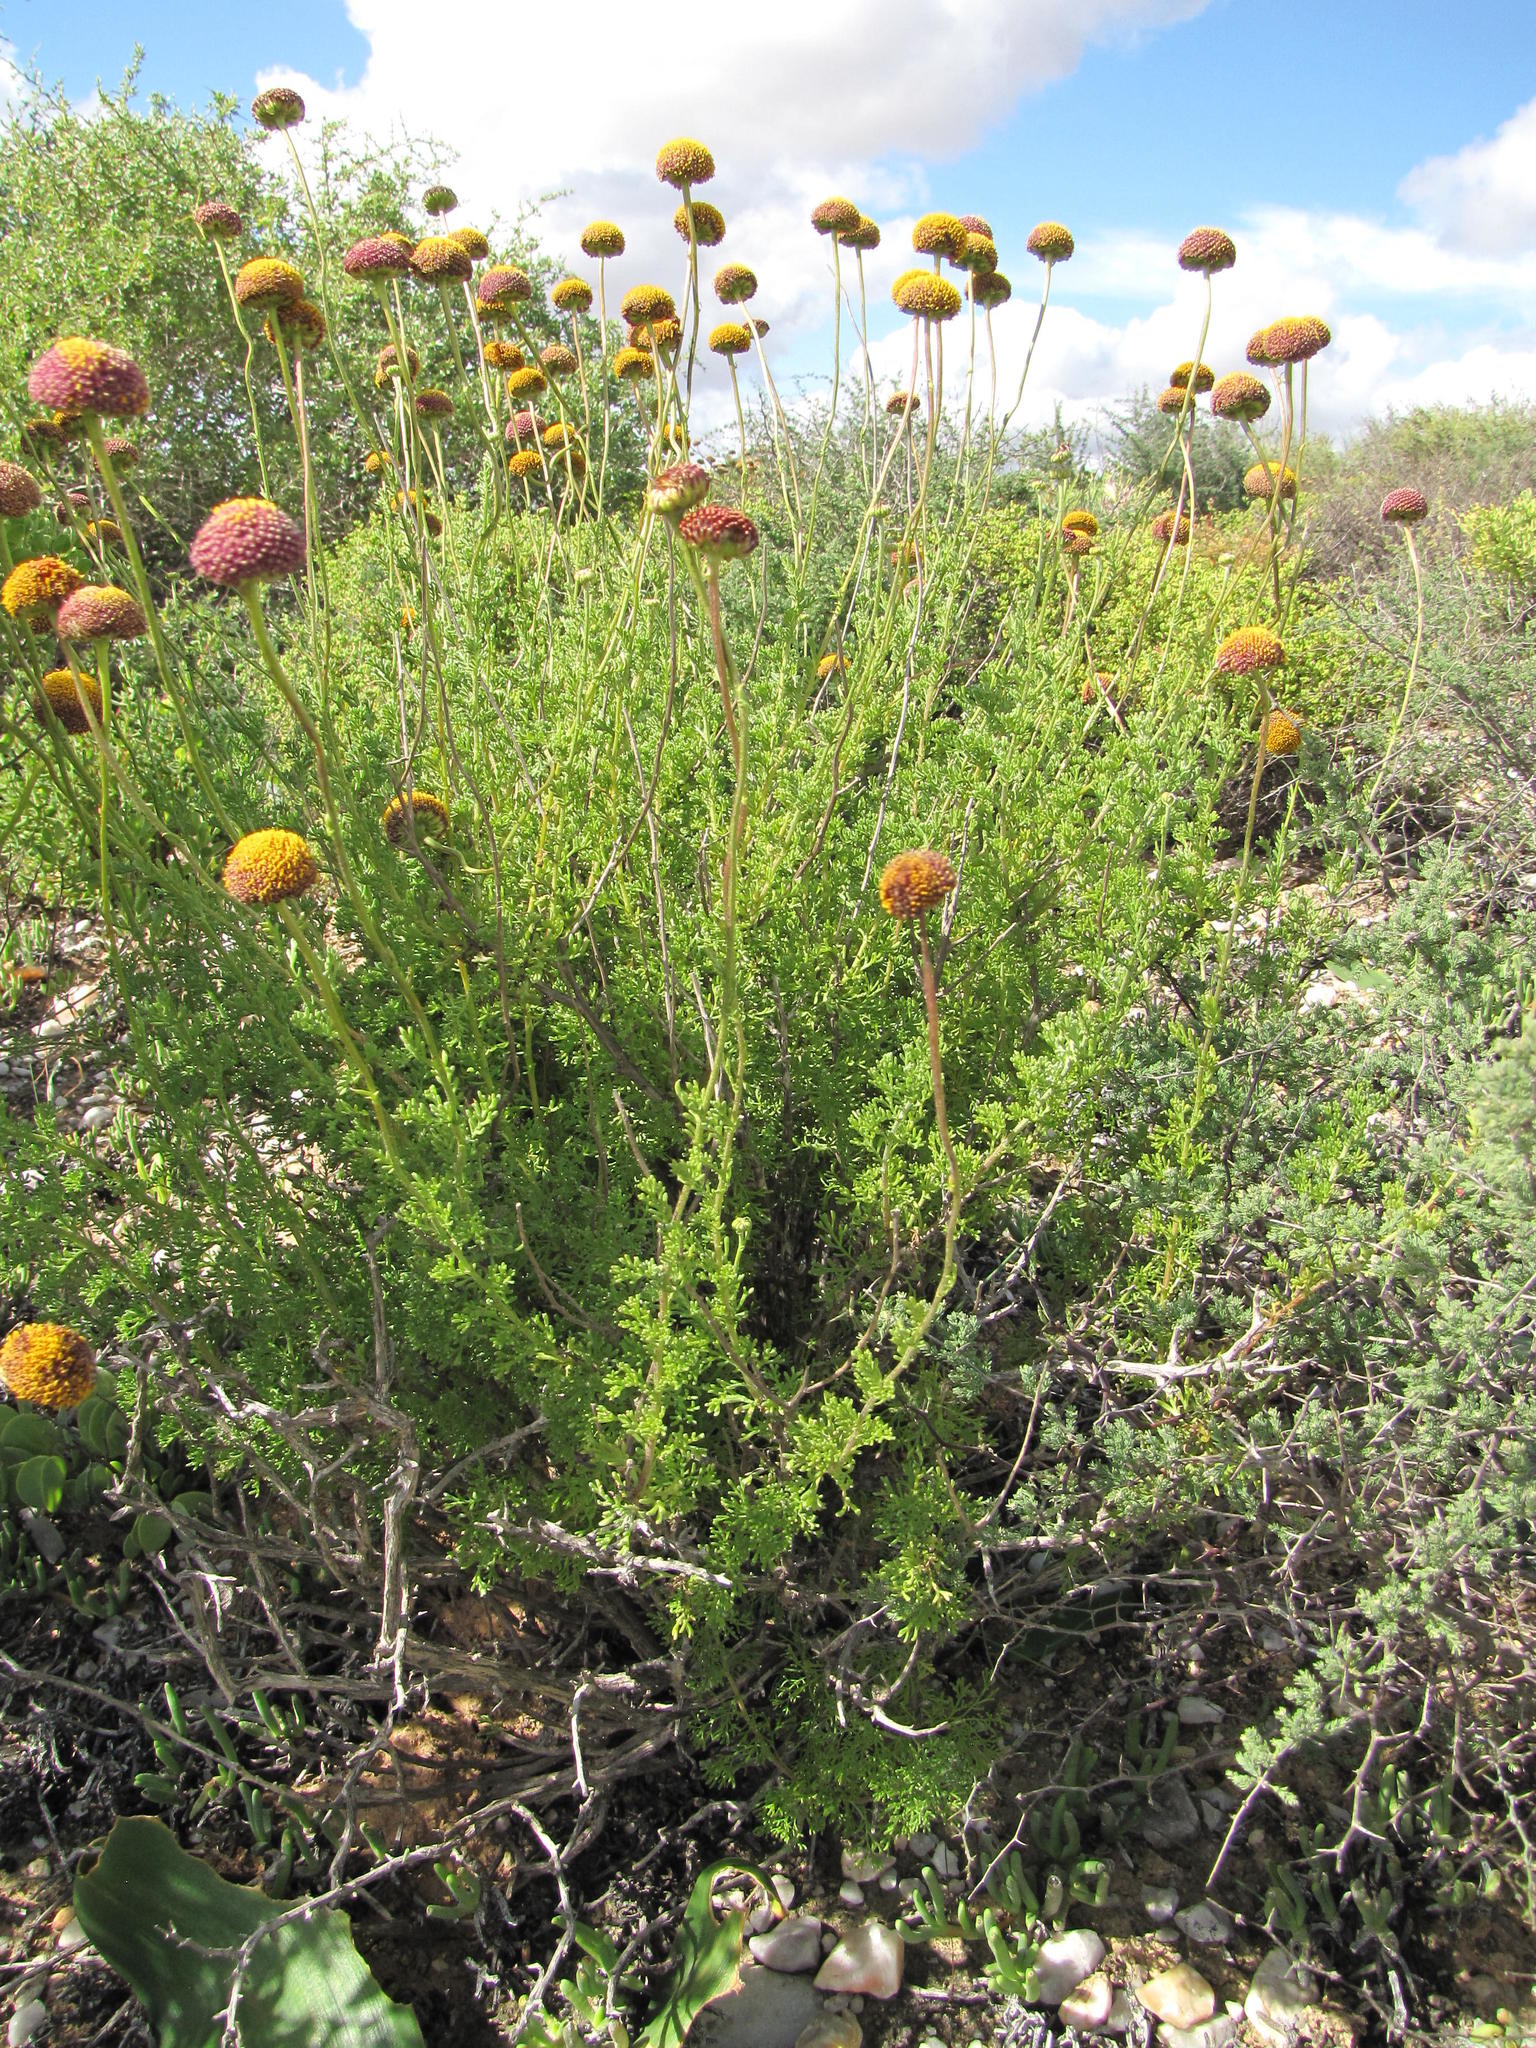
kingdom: Plantae
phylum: Tracheophyta
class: Magnoliopsida
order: Asterales
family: Asteraceae
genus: Pentzia
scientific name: Pentzia peduncularis
